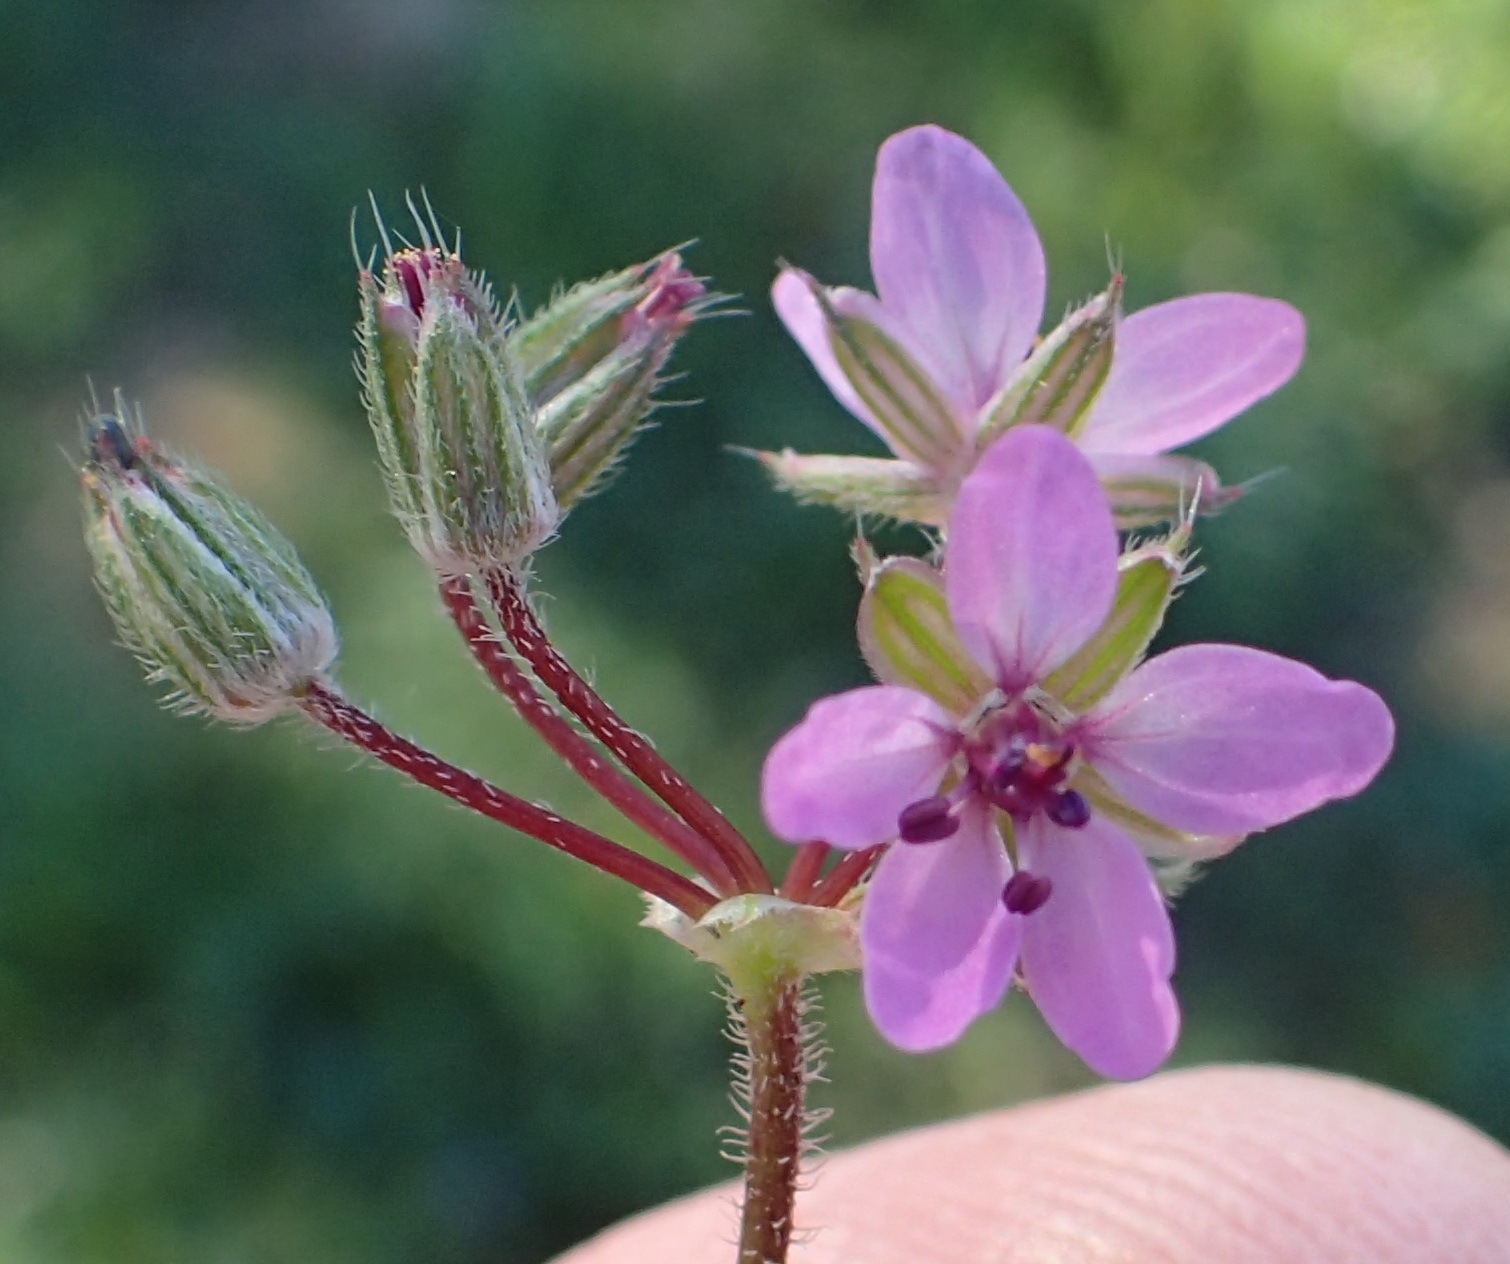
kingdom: Plantae
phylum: Tracheophyta
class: Magnoliopsida
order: Geraniales
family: Geraniaceae
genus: Erodium
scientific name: Erodium cicutarium
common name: Common stork's-bill
